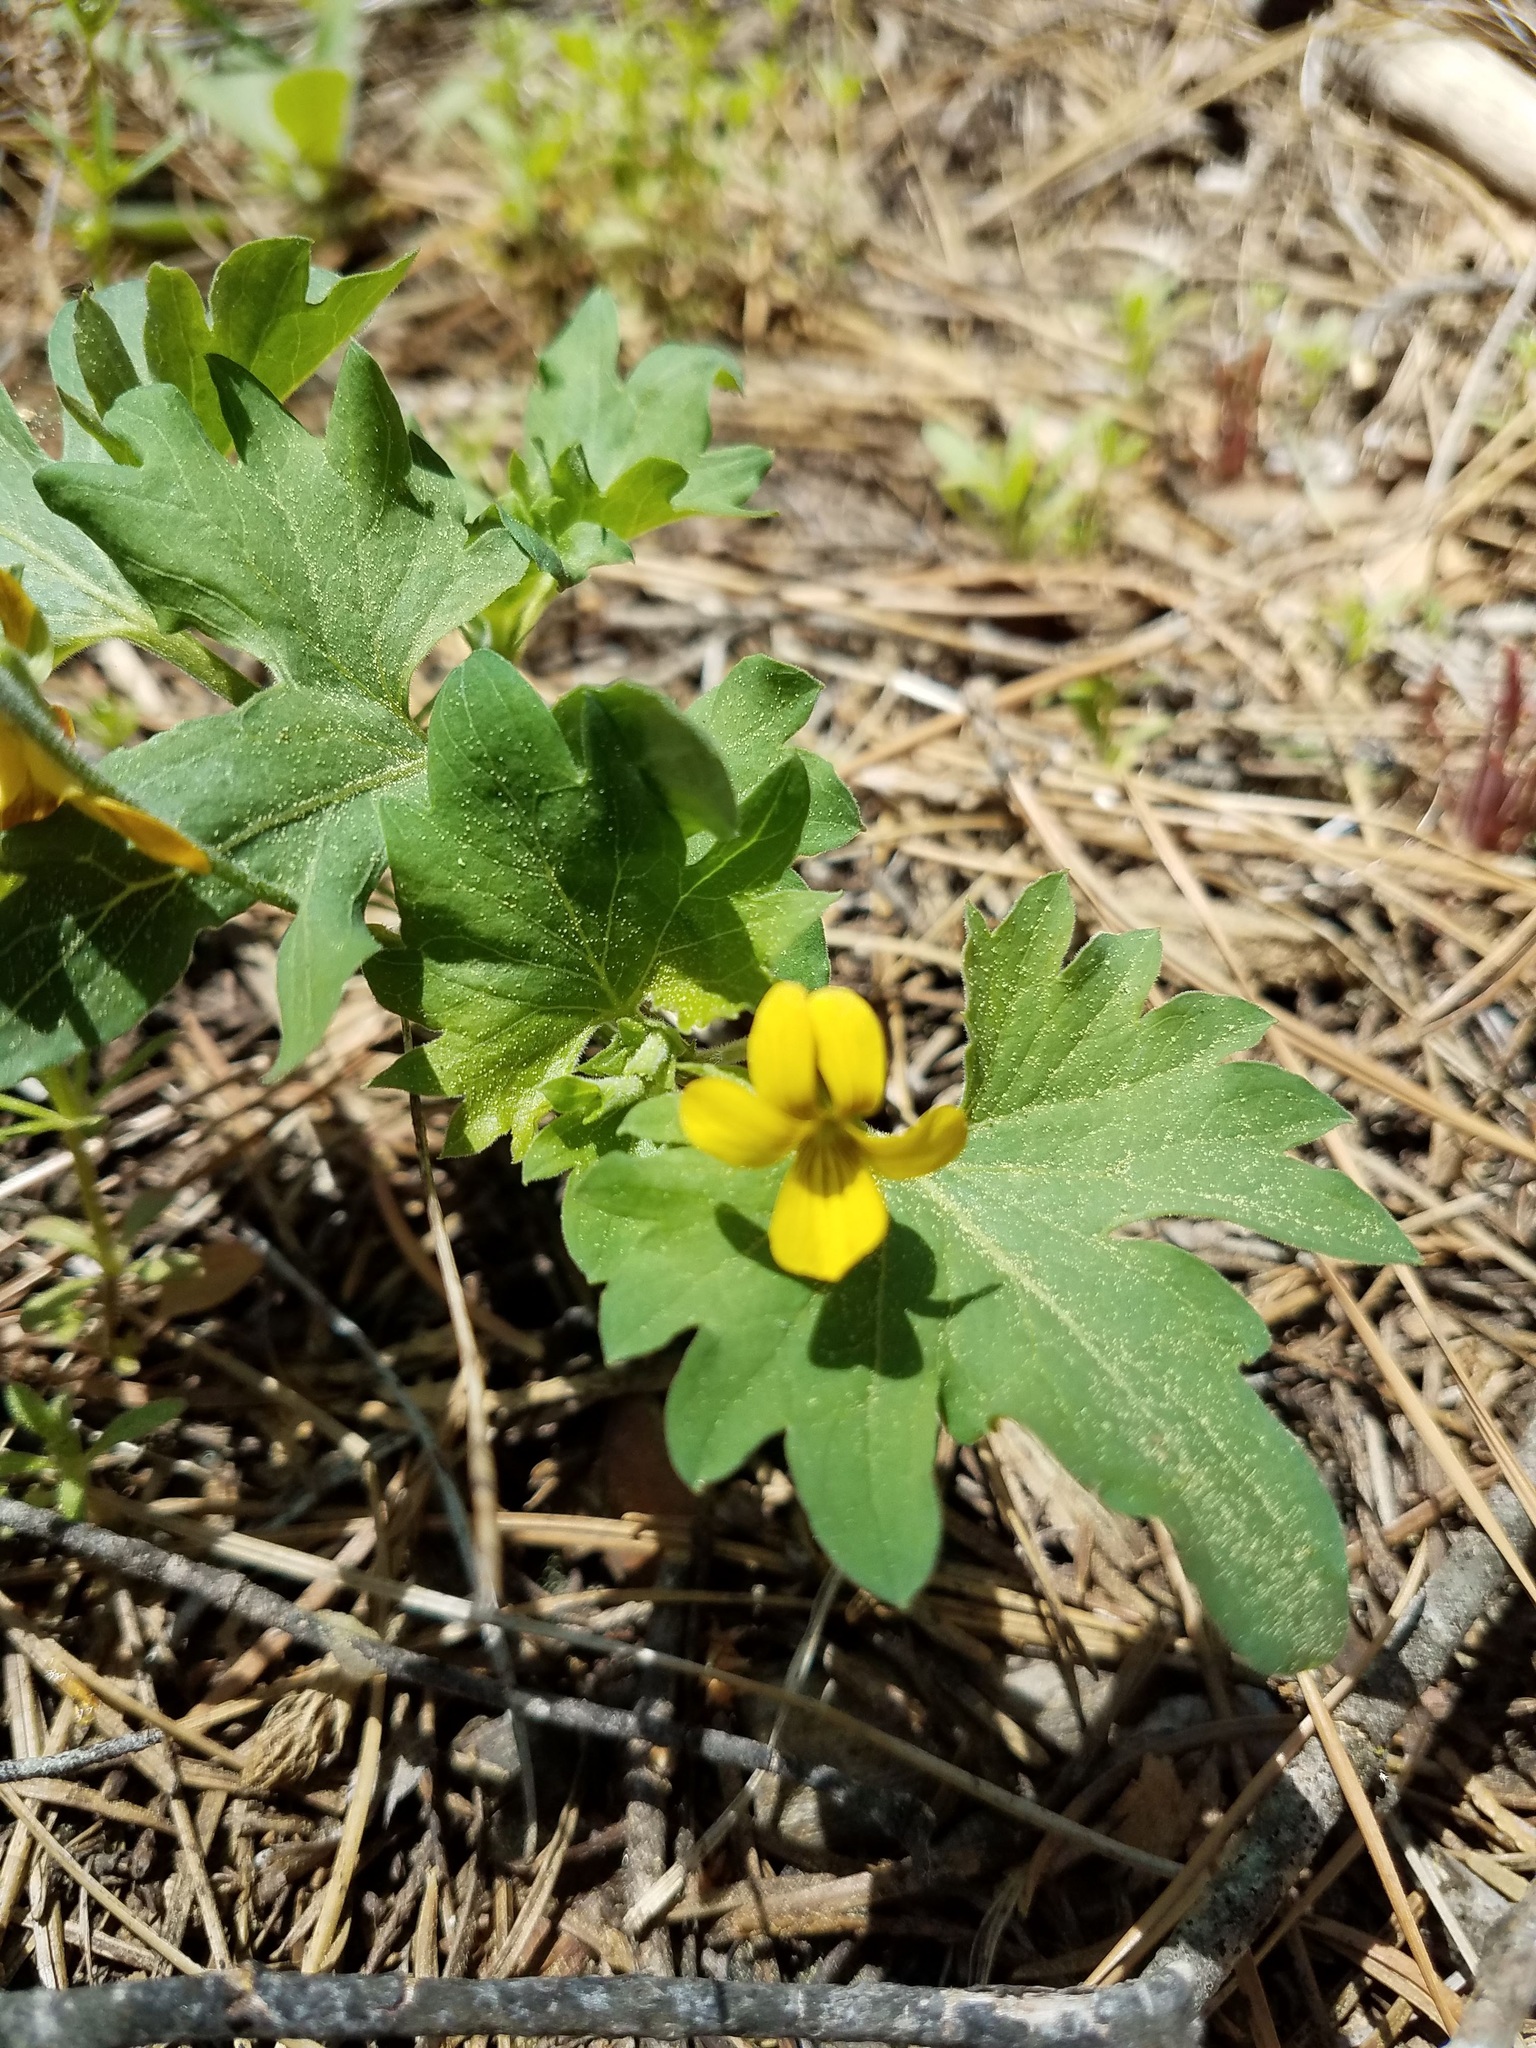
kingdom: Plantae
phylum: Tracheophyta
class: Magnoliopsida
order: Malpighiales
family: Violaceae
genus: Viola
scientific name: Viola lobata
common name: Pine violet
